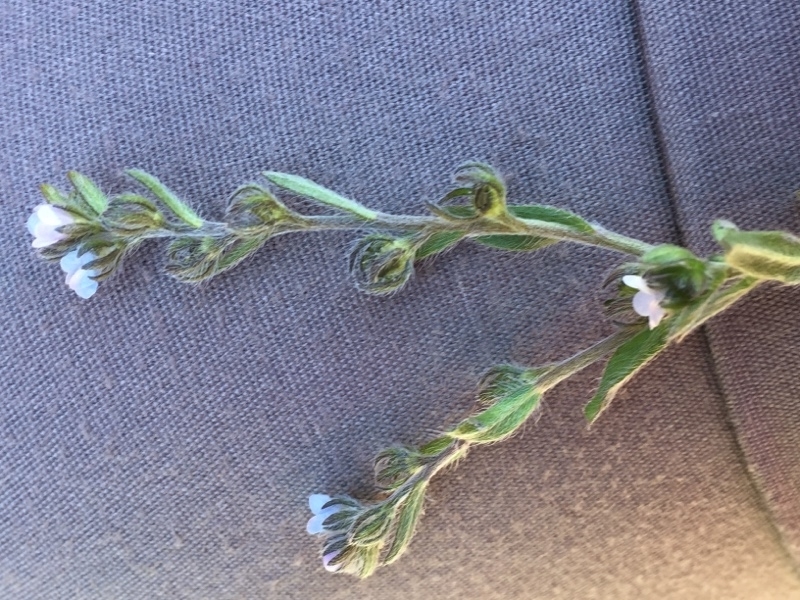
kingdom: Plantae
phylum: Tracheophyta
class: Magnoliopsida
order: Boraginales
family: Boraginaceae
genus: Lappula
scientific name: Lappula squarrosa
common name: European stickseed
